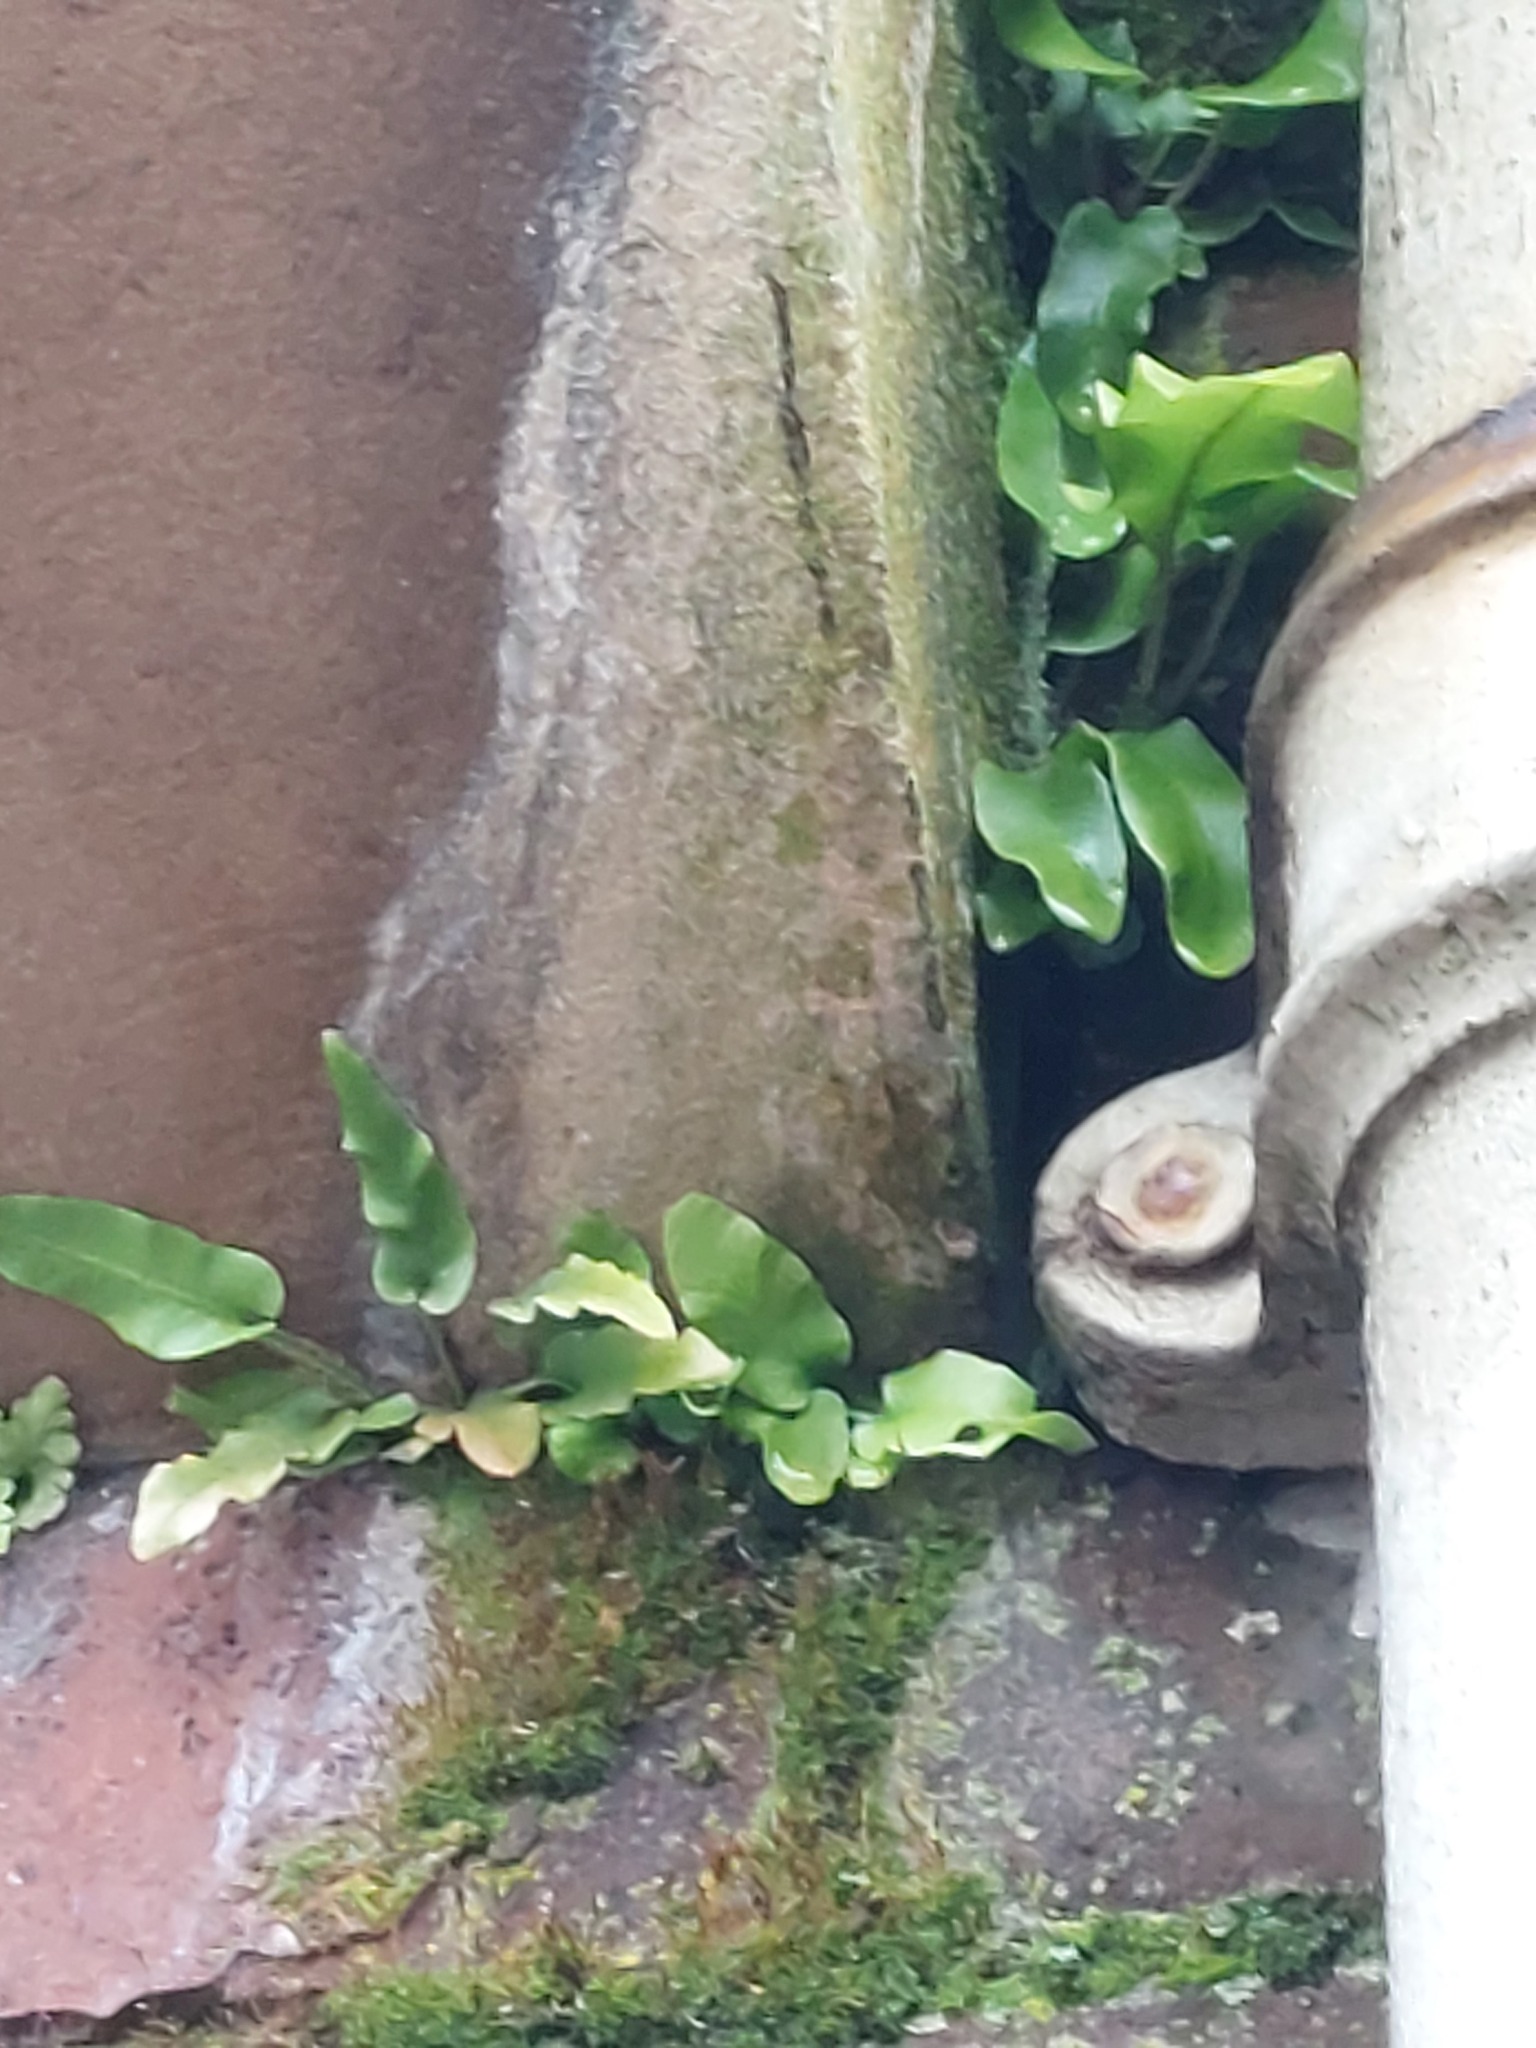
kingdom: Plantae
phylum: Tracheophyta
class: Polypodiopsida
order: Polypodiales
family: Aspleniaceae
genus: Asplenium
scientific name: Asplenium scolopendrium
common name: Hart's-tongue fern
